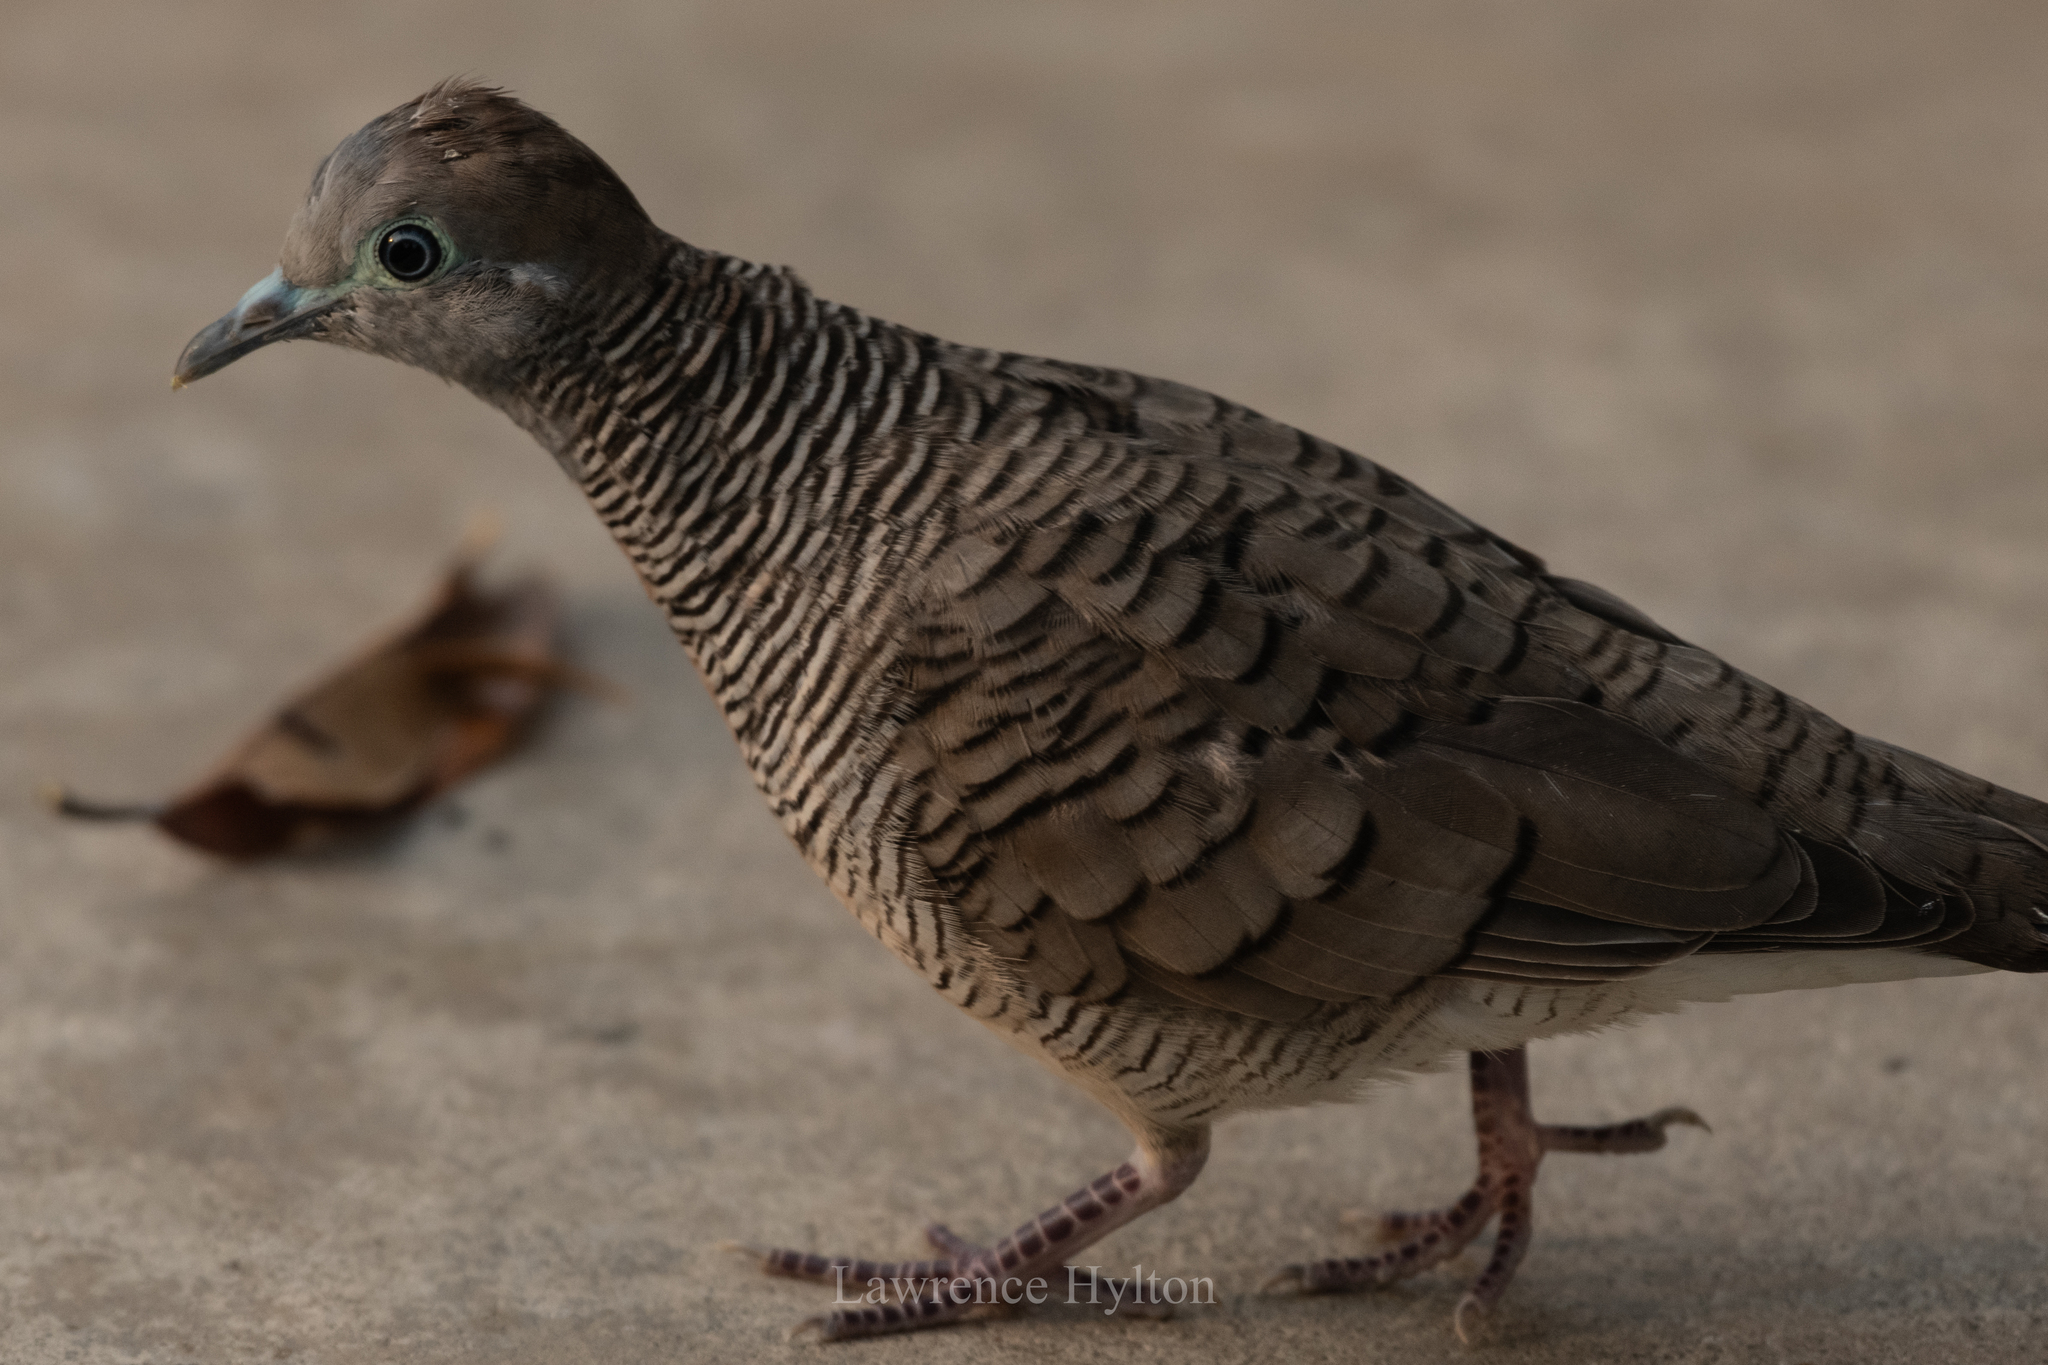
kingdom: Animalia
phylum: Chordata
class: Aves
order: Columbiformes
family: Columbidae
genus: Geopelia
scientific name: Geopelia striata
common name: Zebra dove
